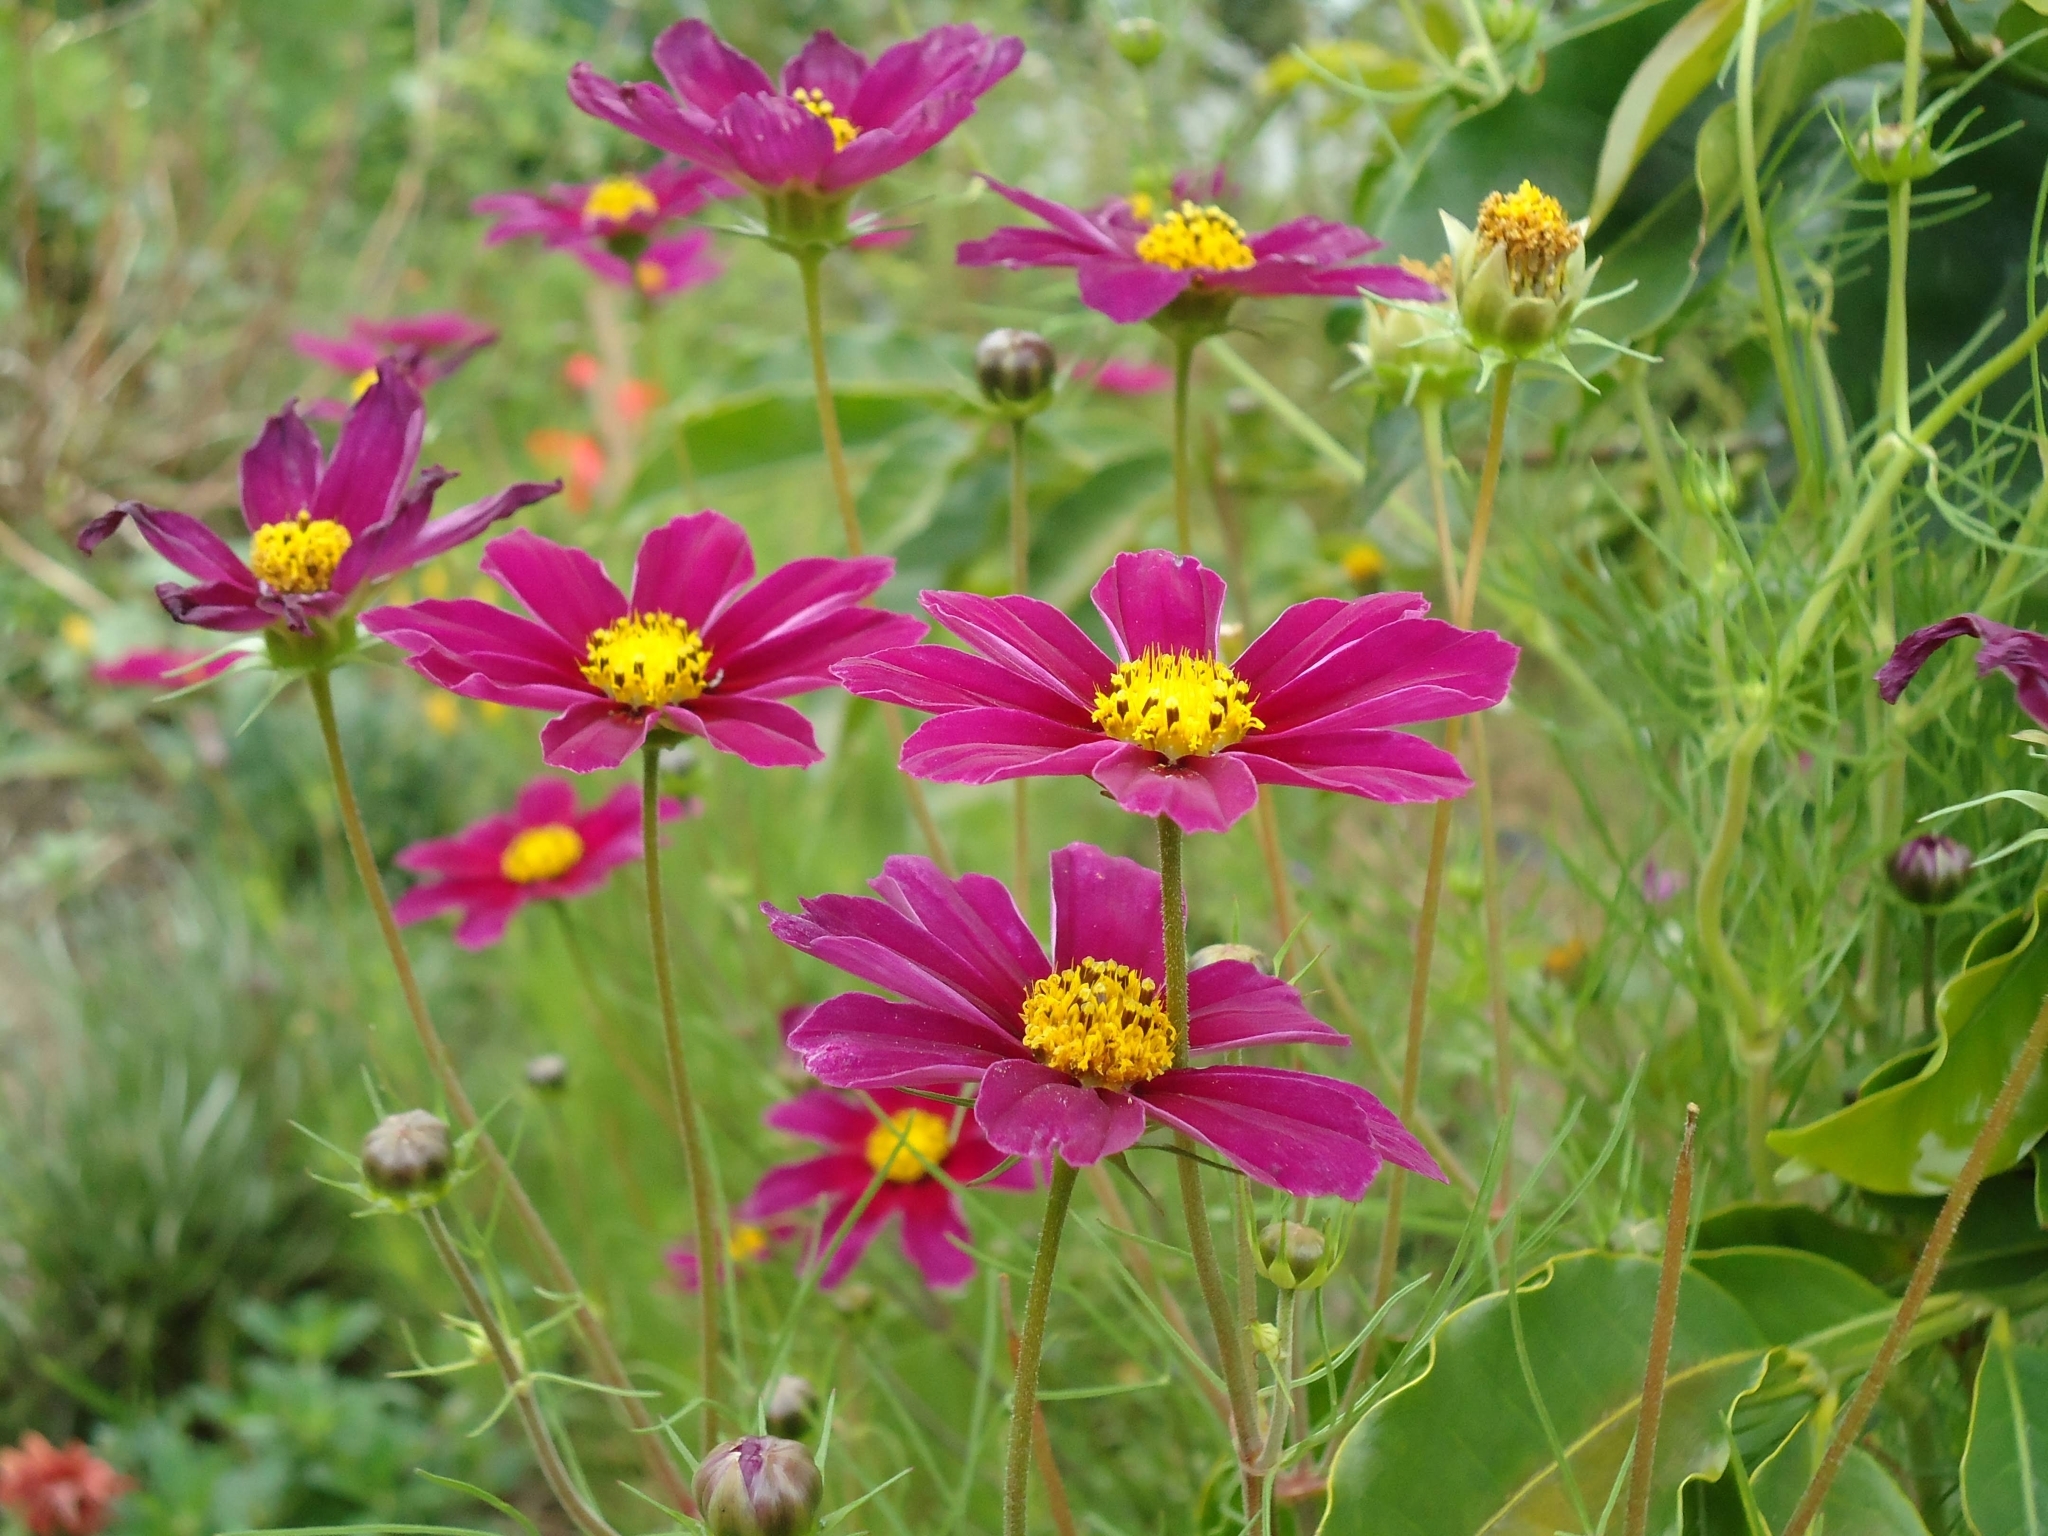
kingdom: Plantae
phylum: Tracheophyta
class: Magnoliopsida
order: Asterales
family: Asteraceae
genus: Cosmos
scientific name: Cosmos bipinnatus
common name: Garden cosmos
